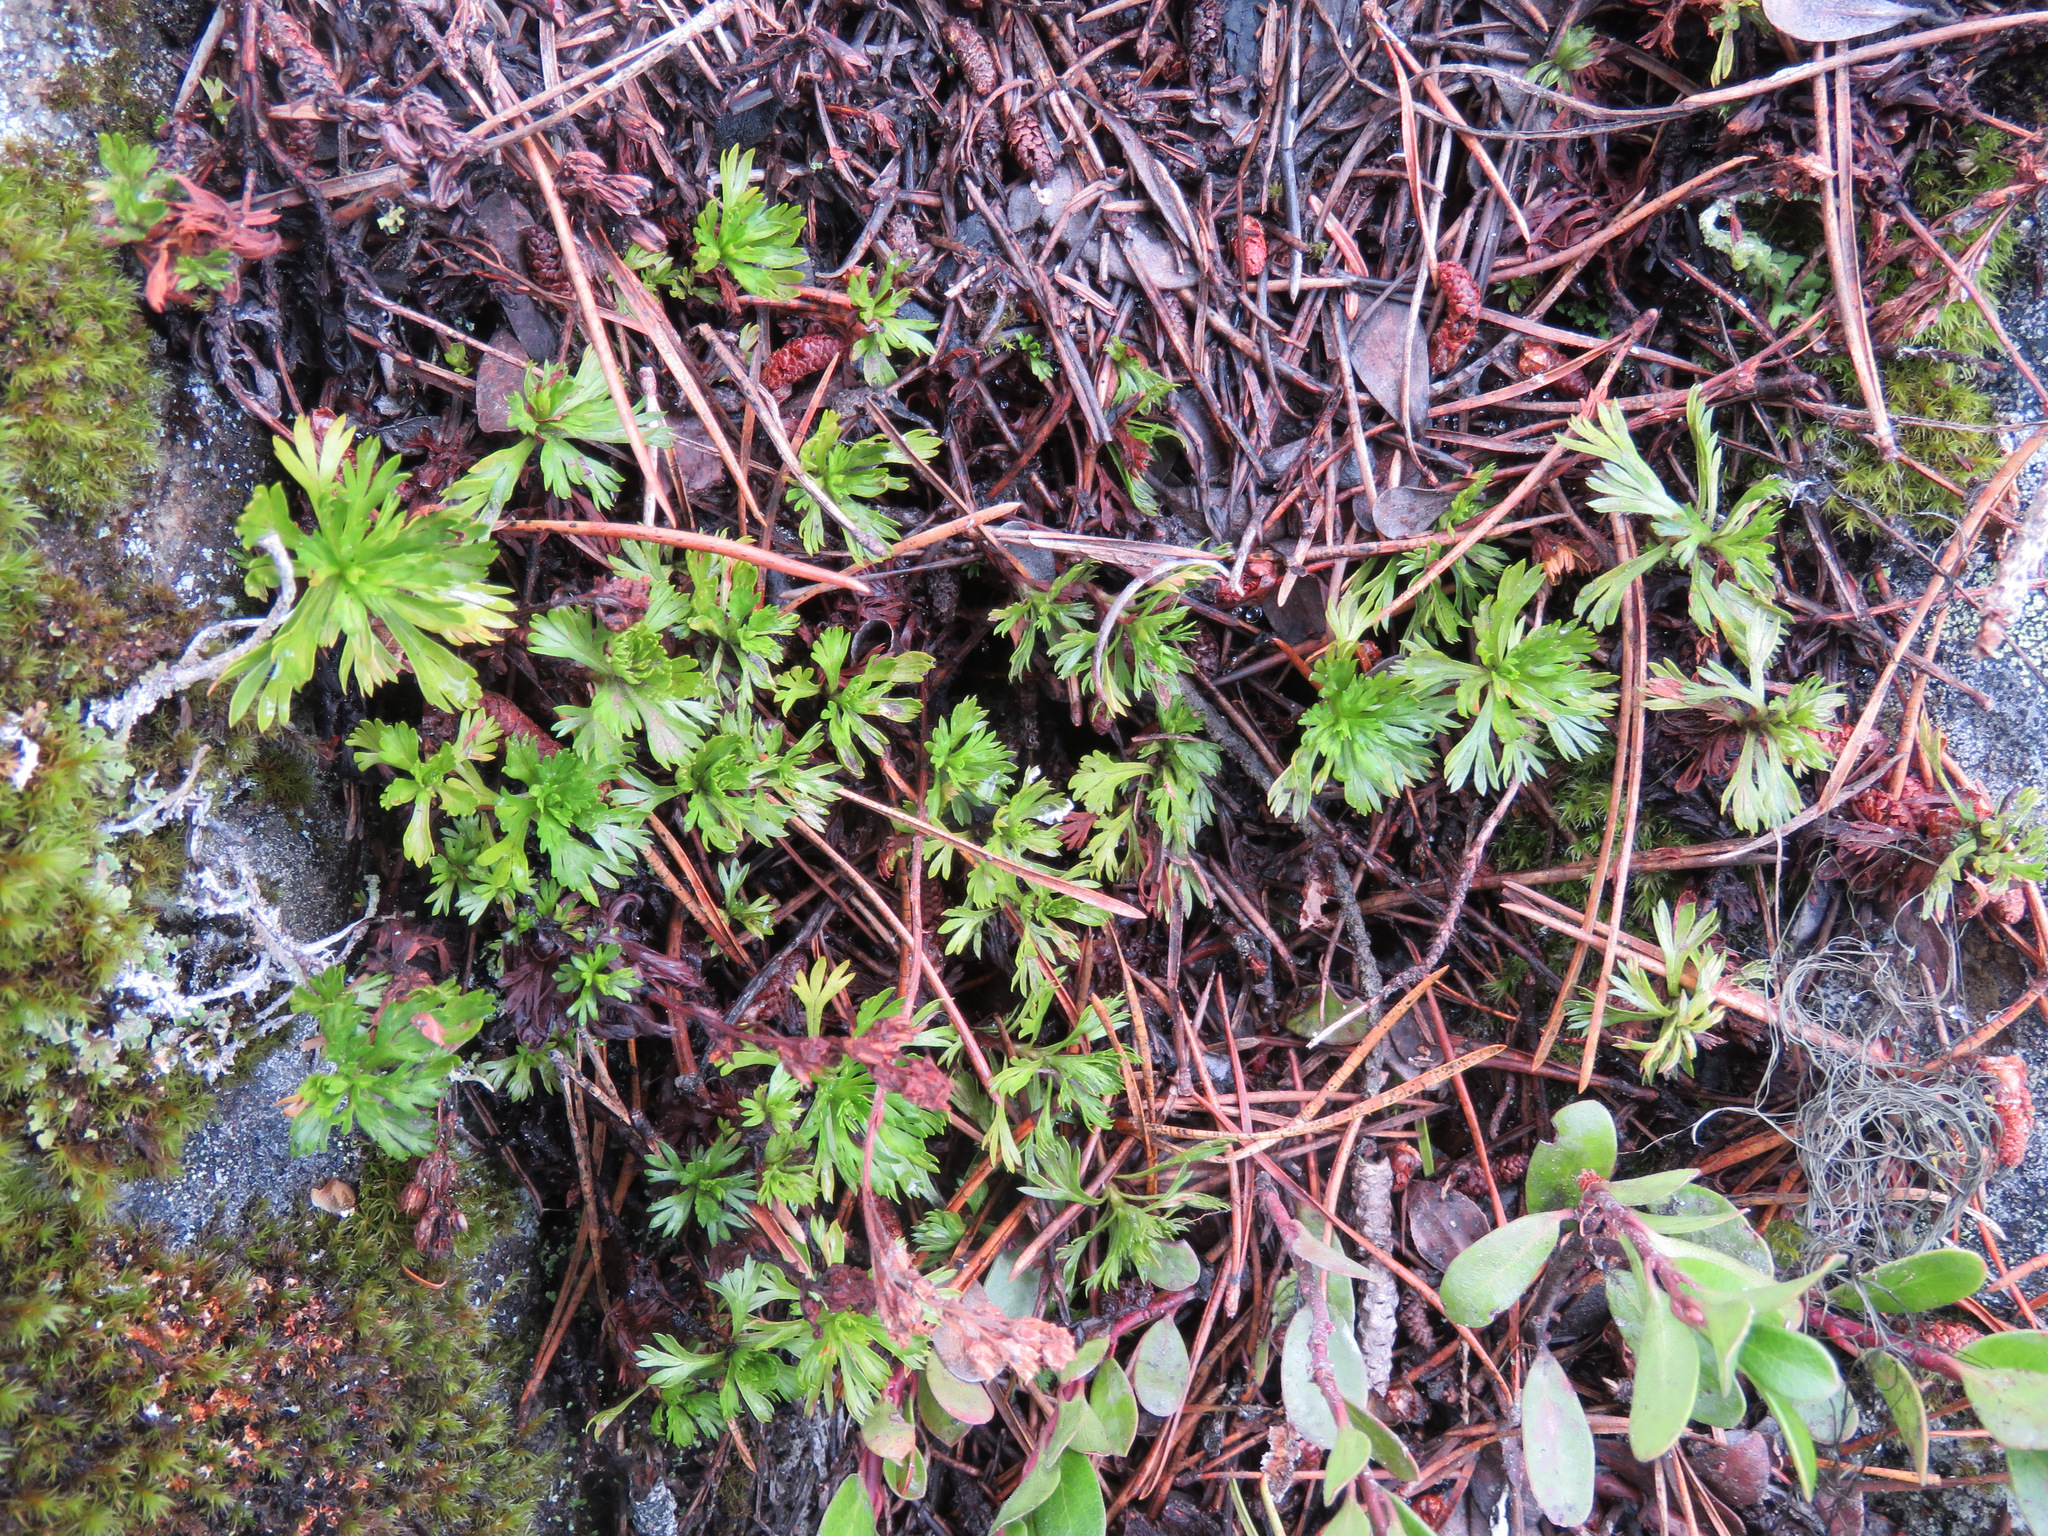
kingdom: Plantae
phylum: Tracheophyta
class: Magnoliopsida
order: Rosales
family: Rosaceae
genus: Luetkea
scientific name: Luetkea pectinata
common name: Partridgefoot
